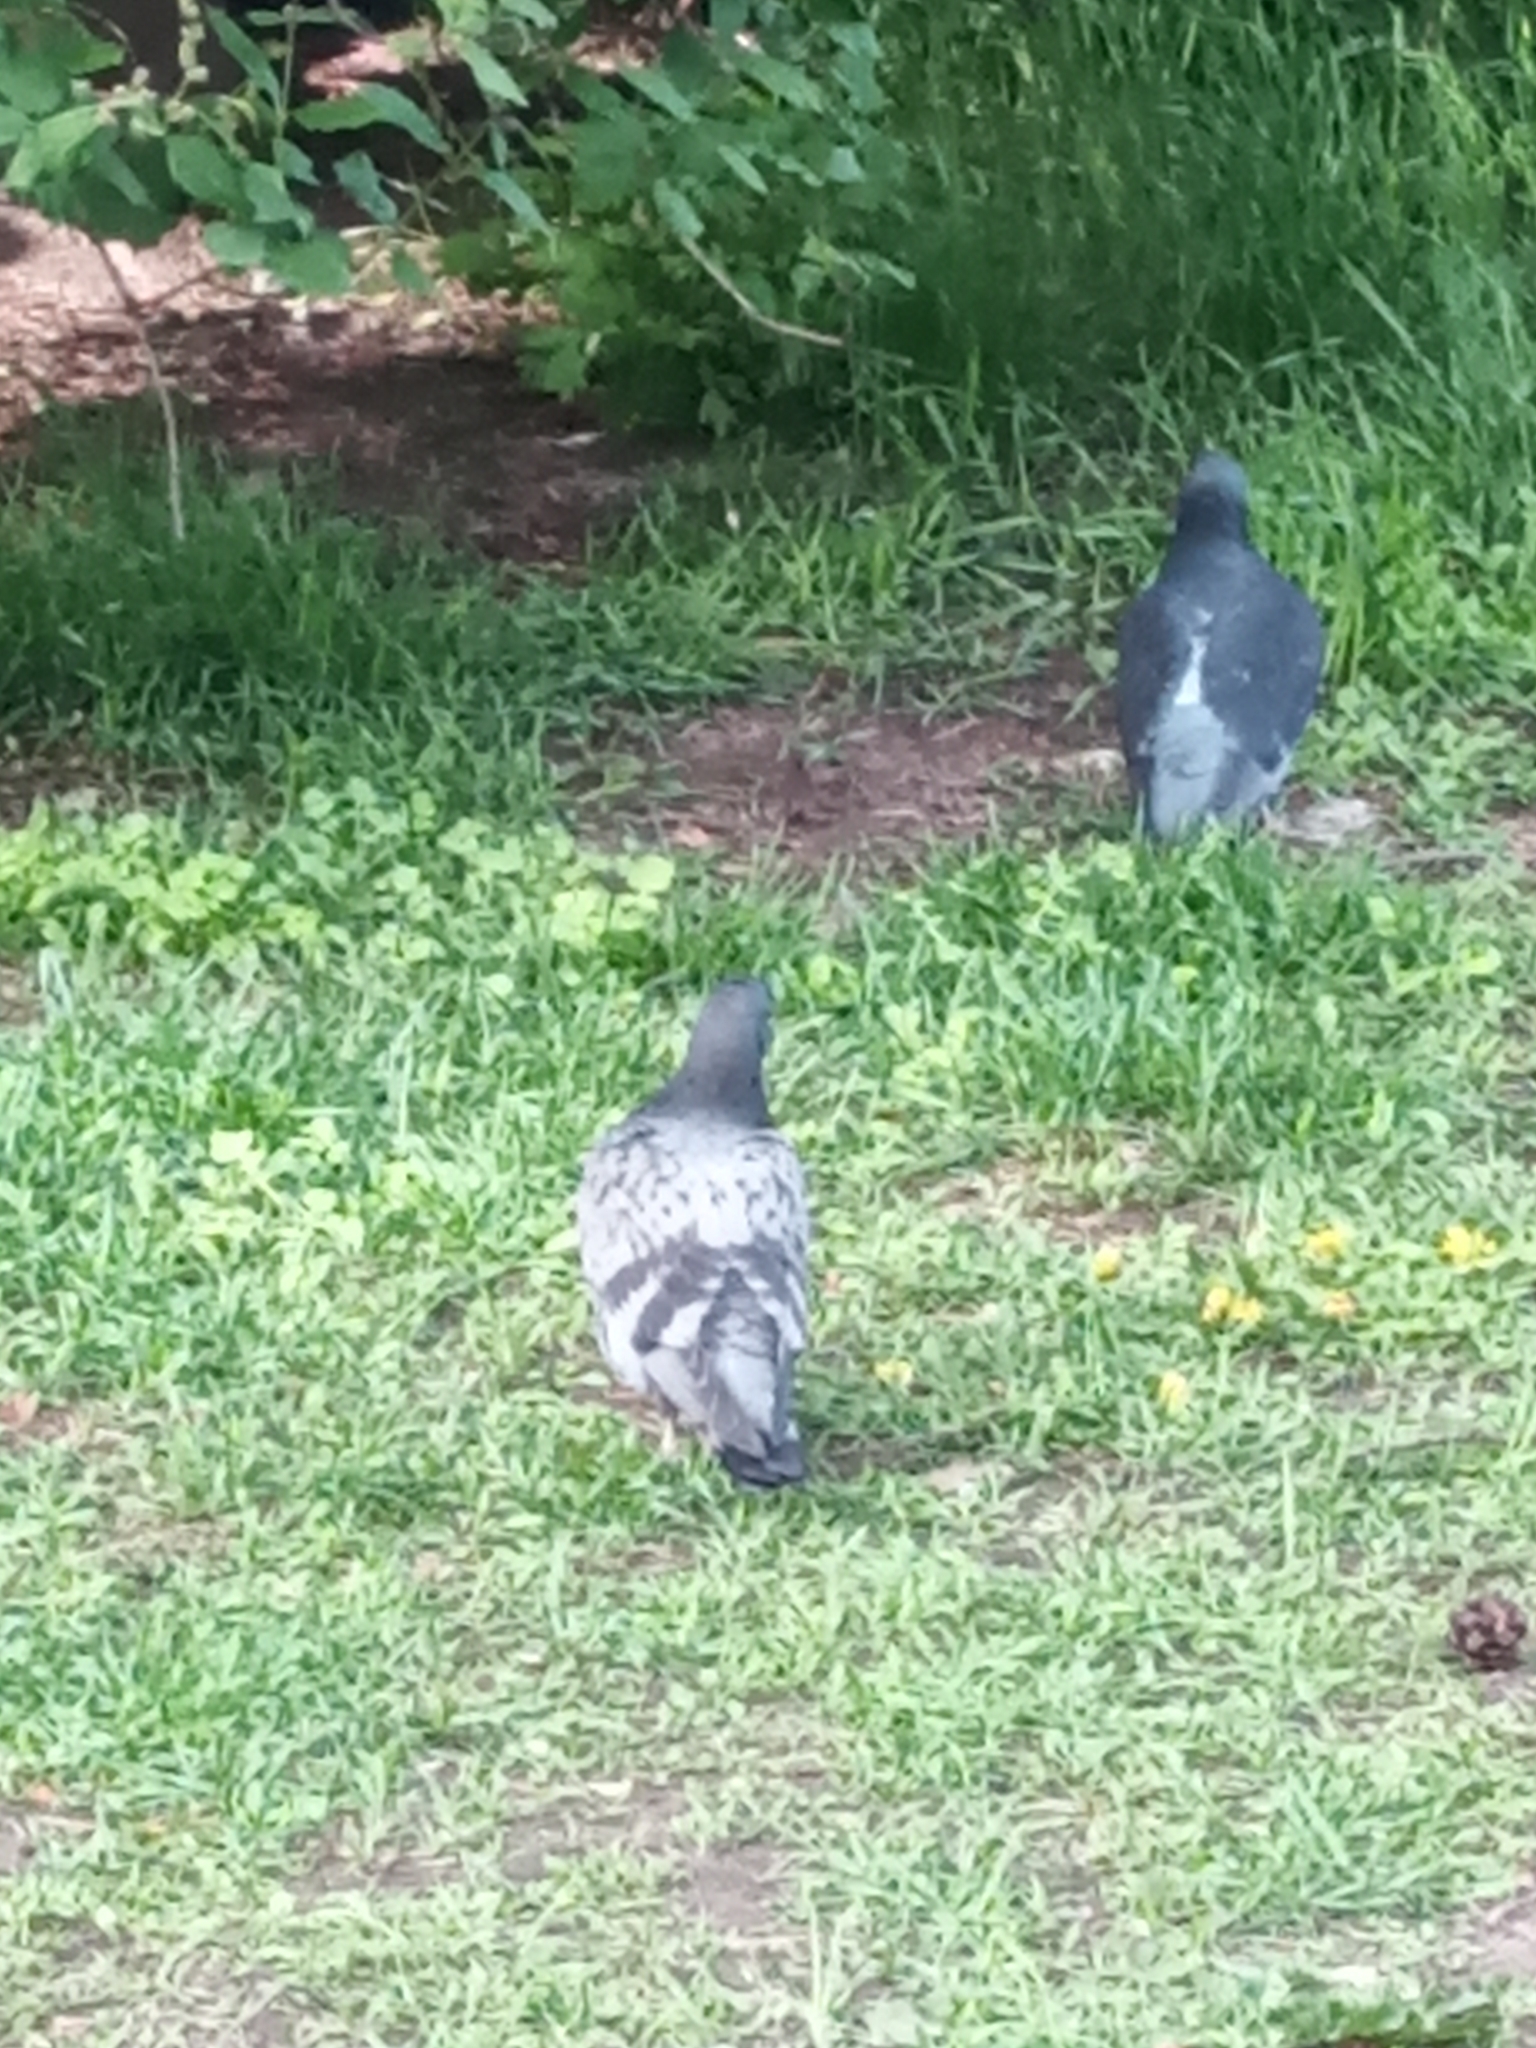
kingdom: Animalia
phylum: Chordata
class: Aves
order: Columbiformes
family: Columbidae
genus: Columba
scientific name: Columba livia
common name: Rock pigeon
